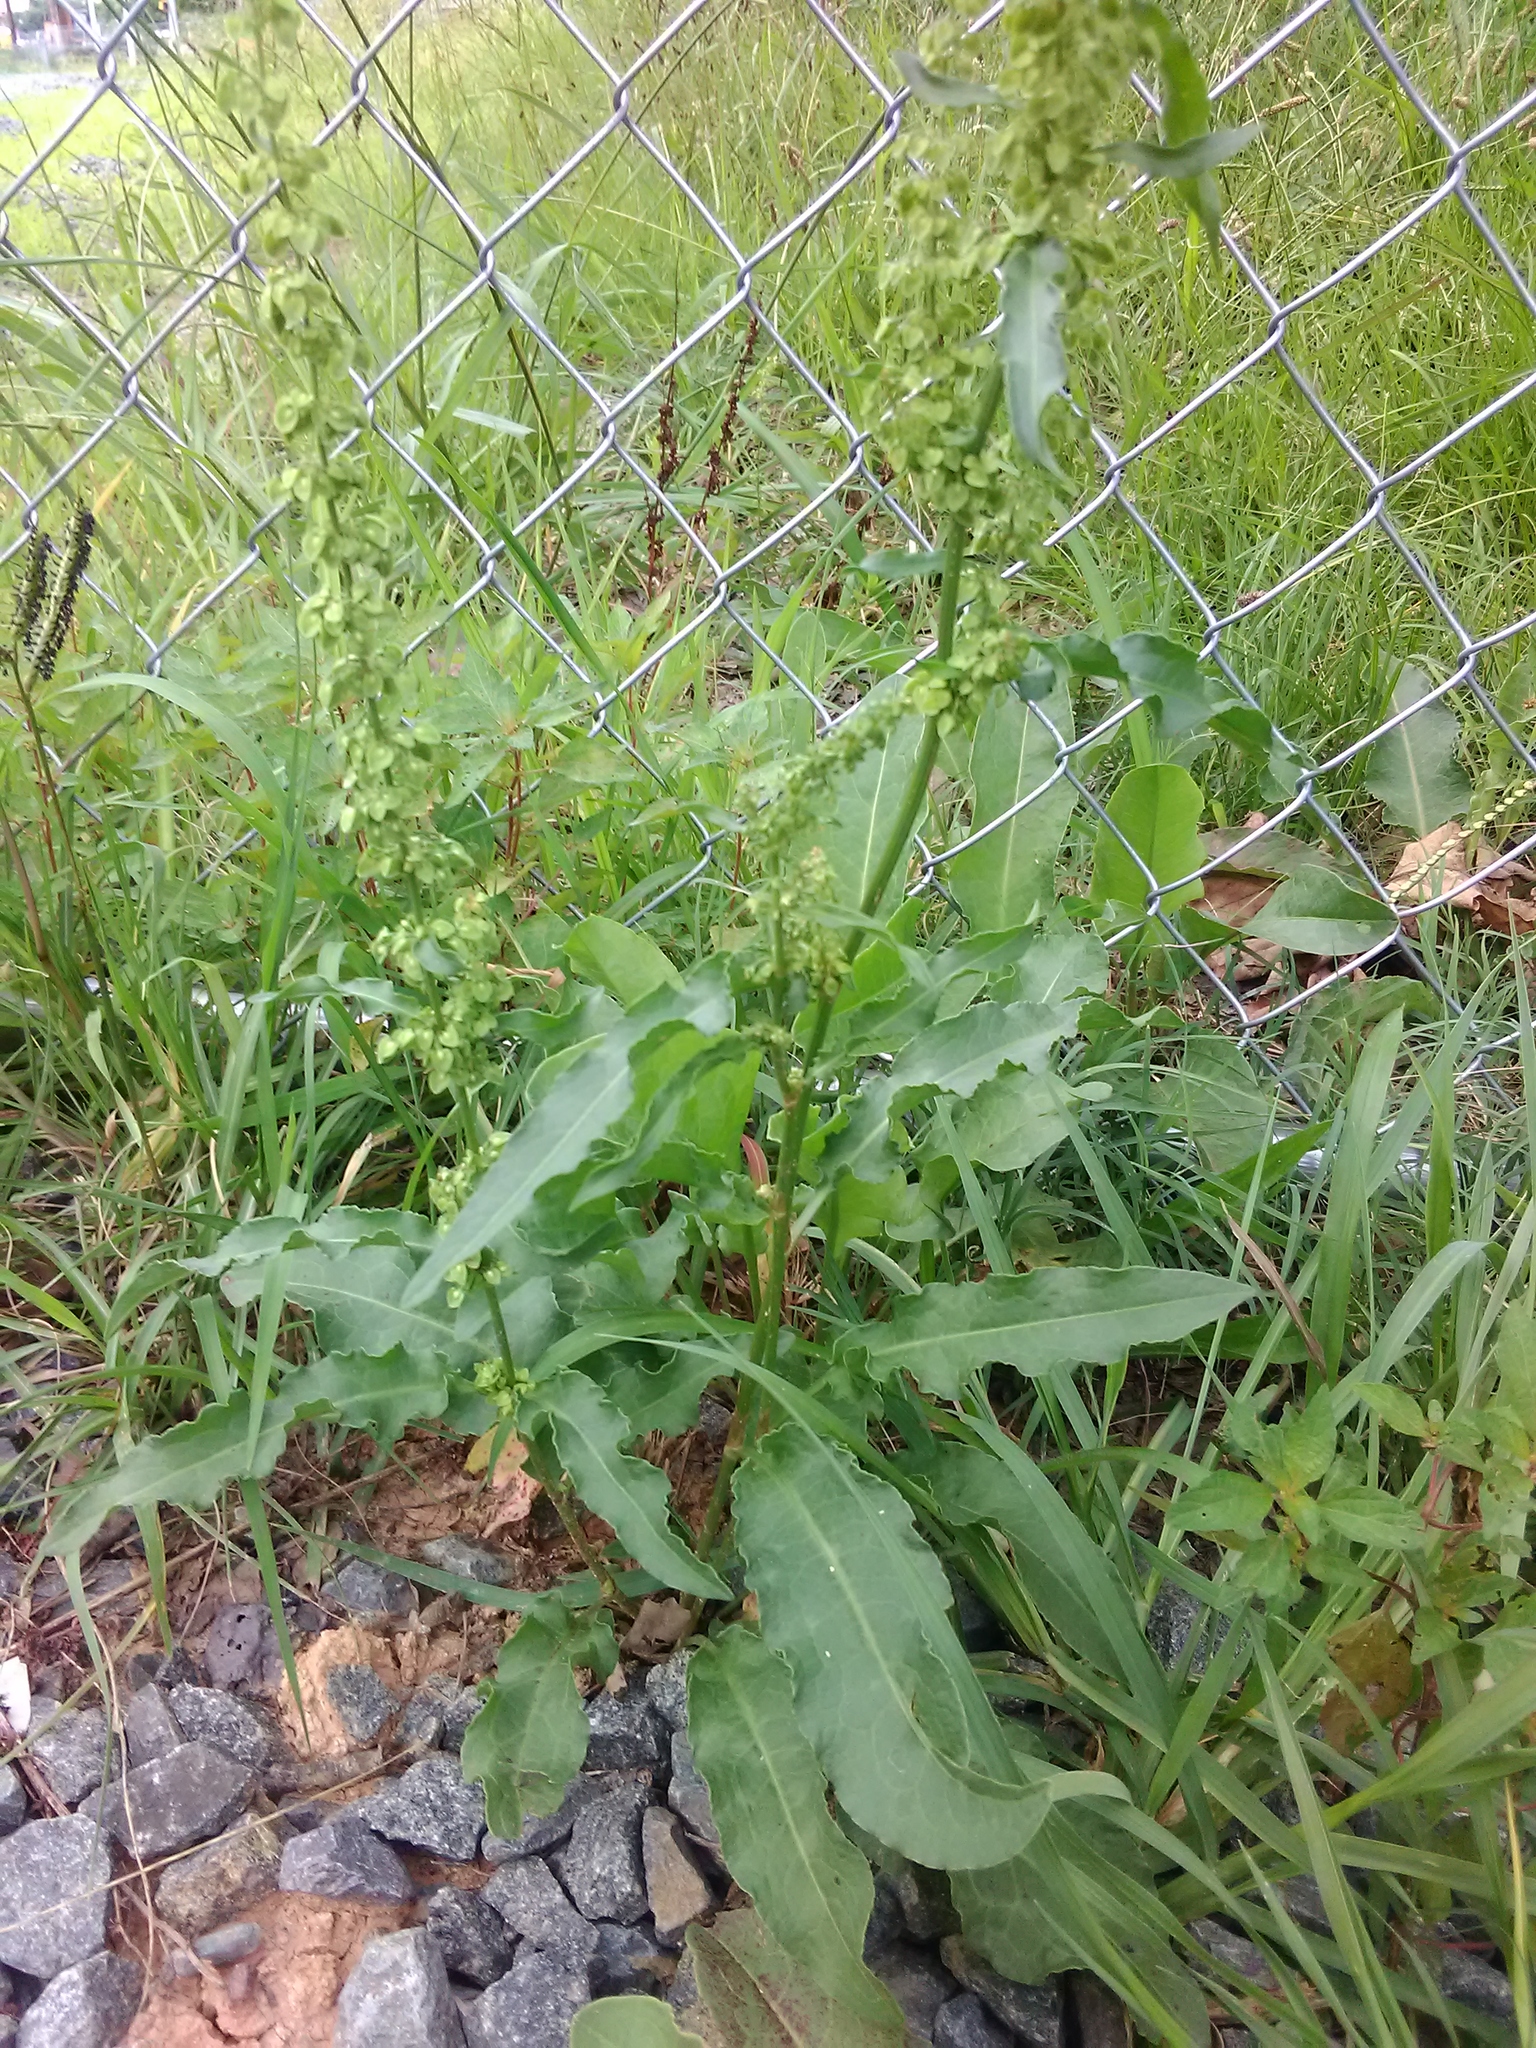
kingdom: Plantae
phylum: Tracheophyta
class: Magnoliopsida
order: Caryophyllales
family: Polygonaceae
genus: Rumex
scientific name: Rumex crispus
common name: Curled dock
